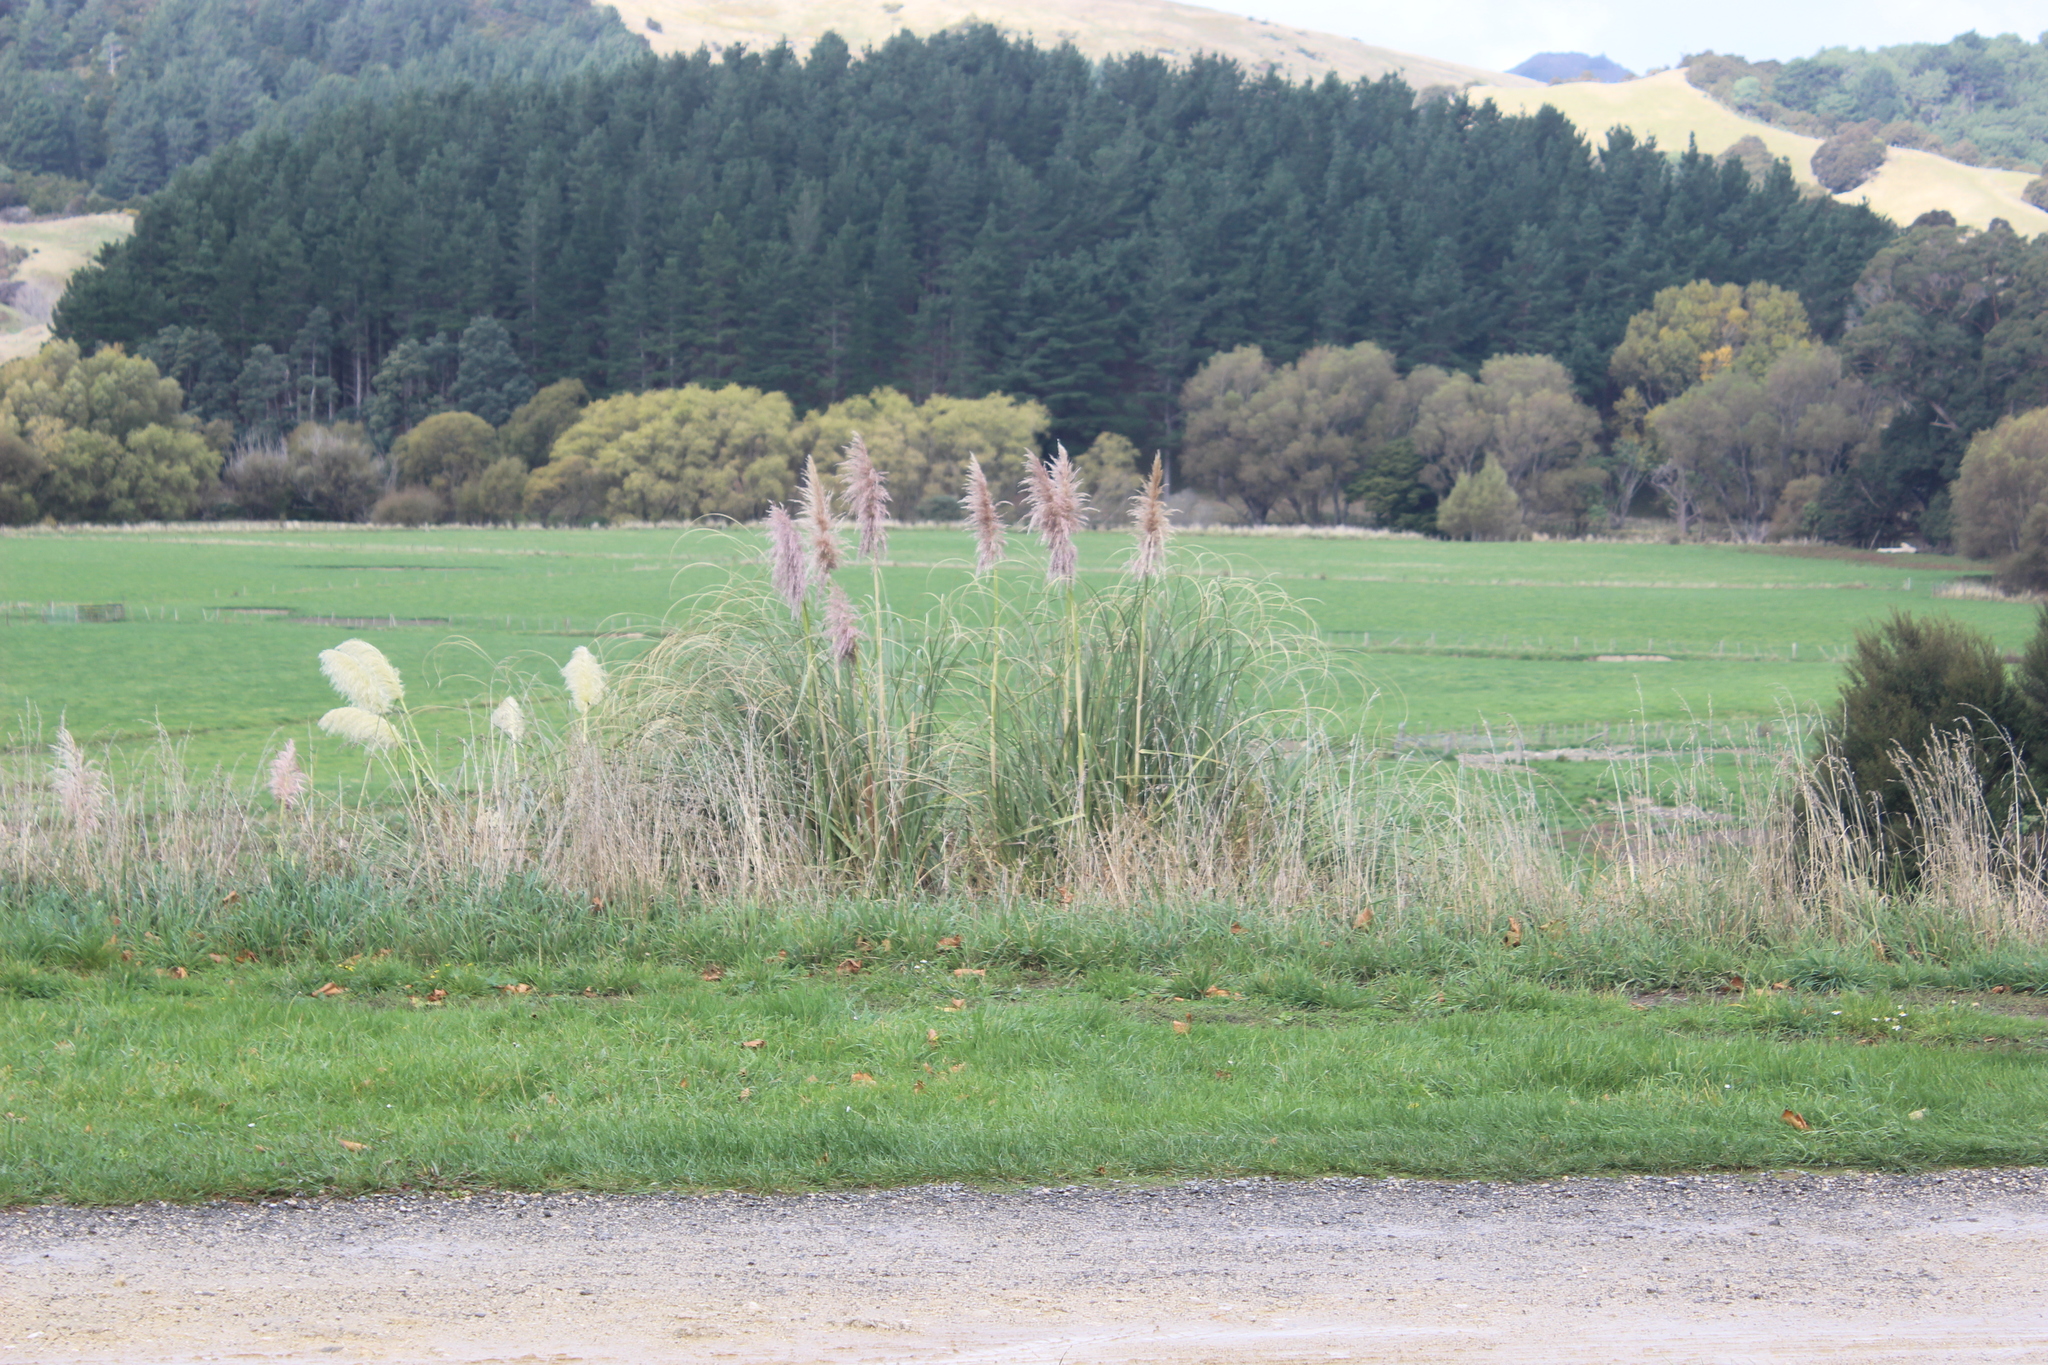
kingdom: Plantae
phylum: Tracheophyta
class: Liliopsida
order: Poales
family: Poaceae
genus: Cortaderia
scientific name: Cortaderia selloana
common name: Uruguayan pampas grass
